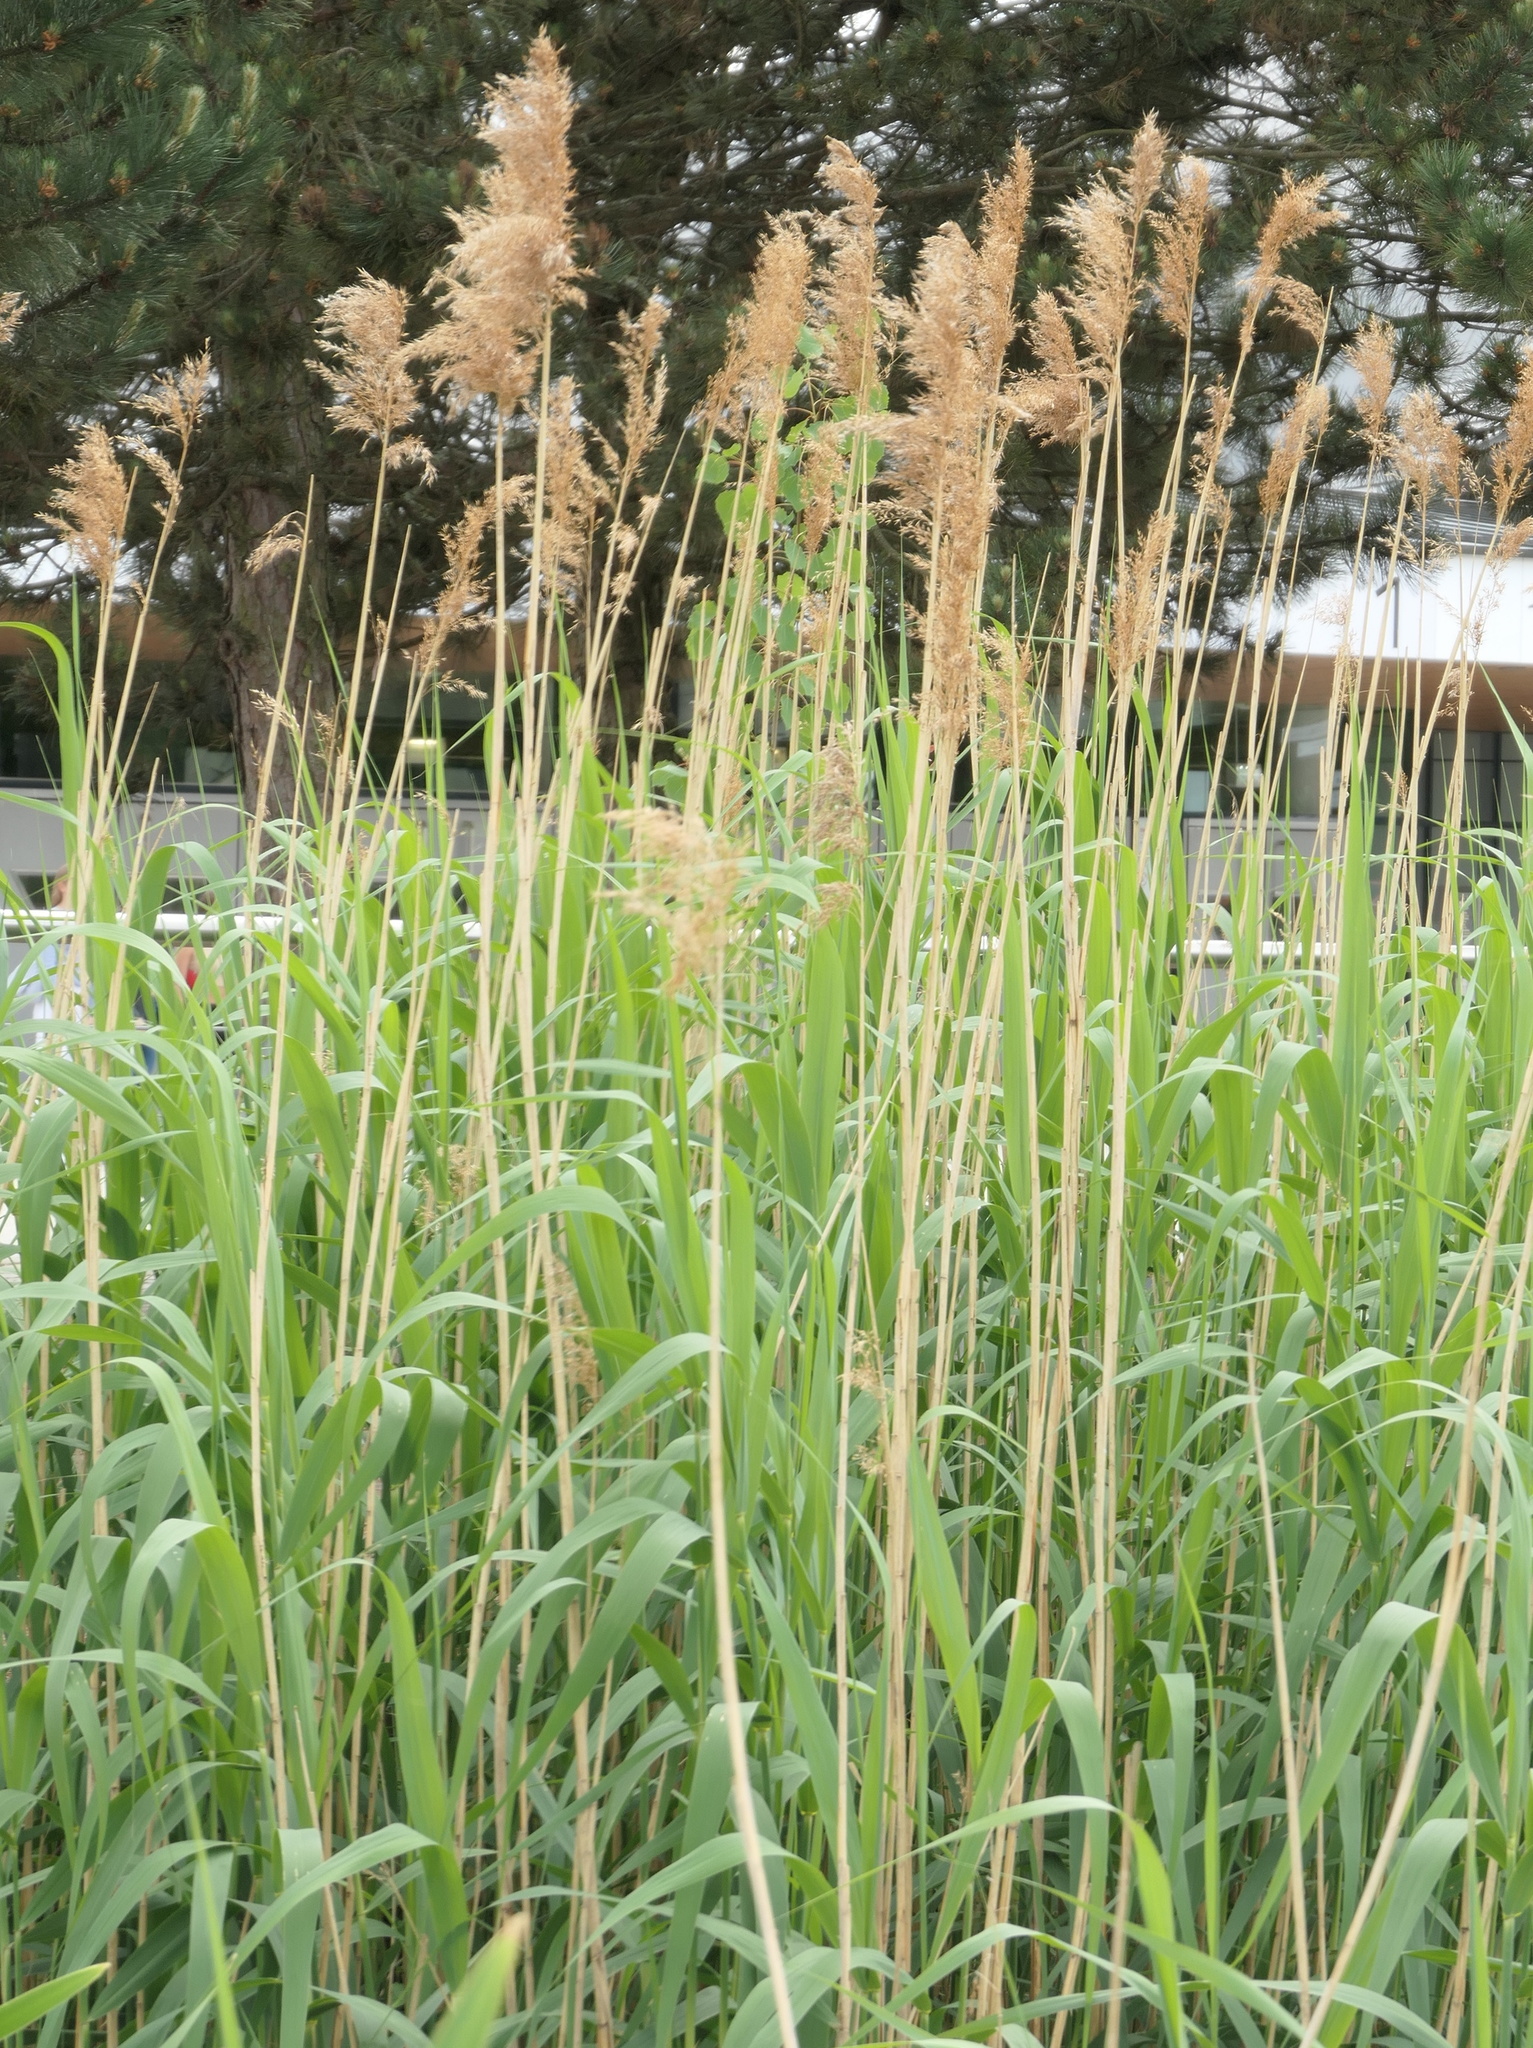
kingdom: Plantae
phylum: Tracheophyta
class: Liliopsida
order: Poales
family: Poaceae
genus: Phragmites
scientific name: Phragmites australis
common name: Common reed
